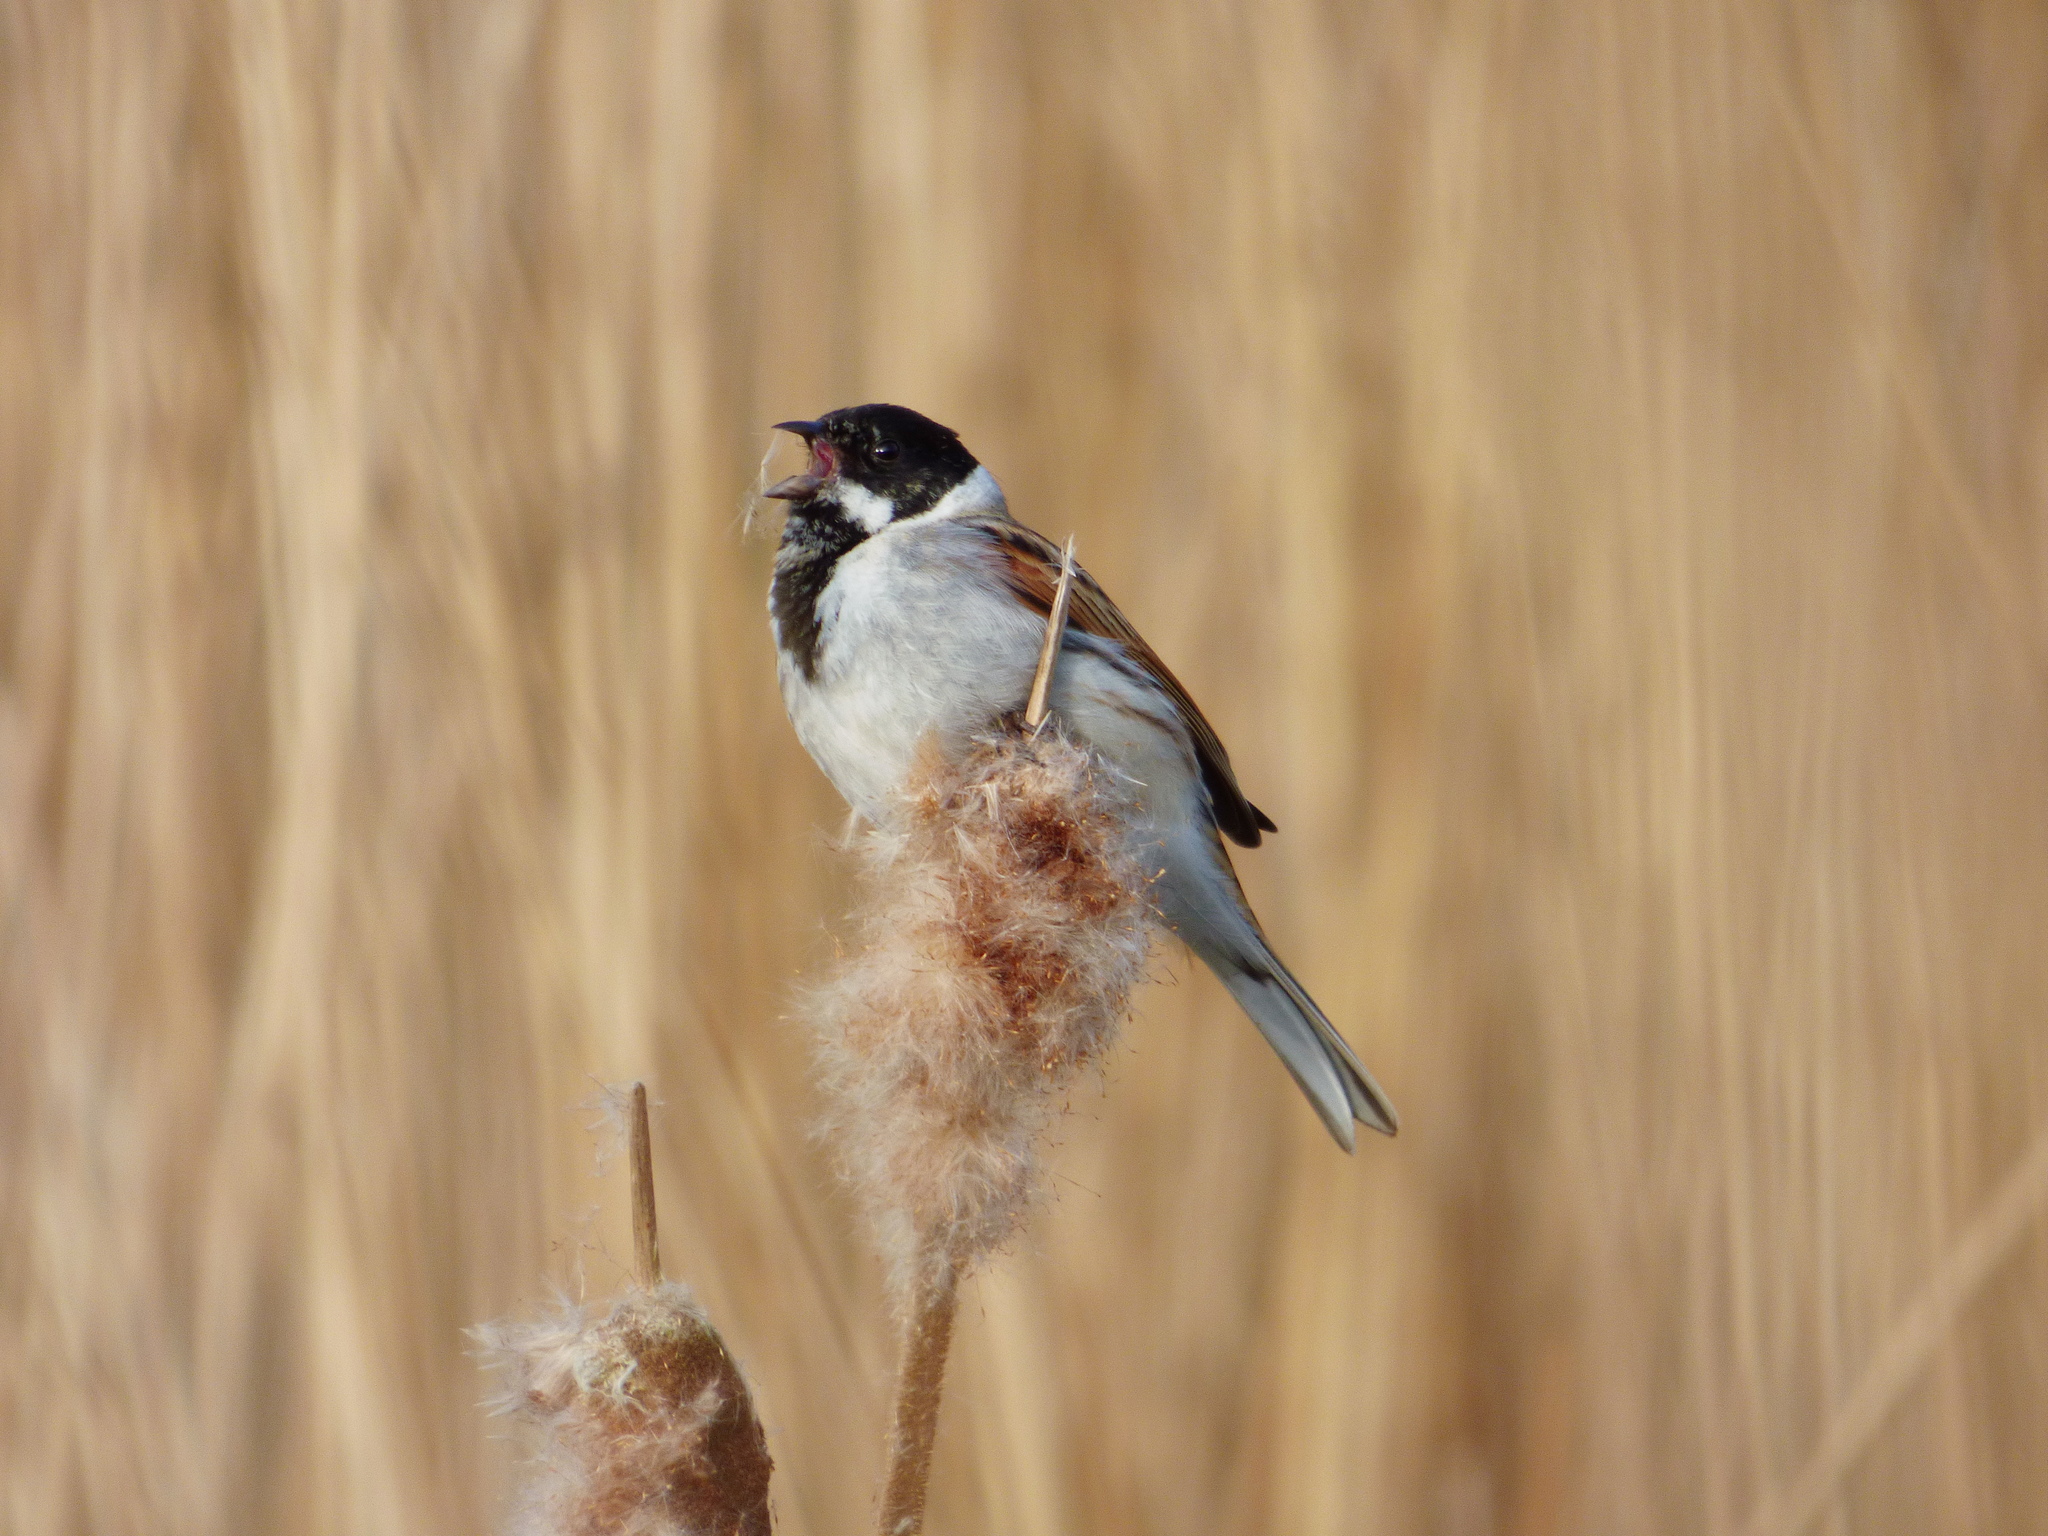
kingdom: Animalia
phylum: Chordata
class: Aves
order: Passeriformes
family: Emberizidae
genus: Emberiza
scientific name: Emberiza schoeniclus
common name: Reed bunting
